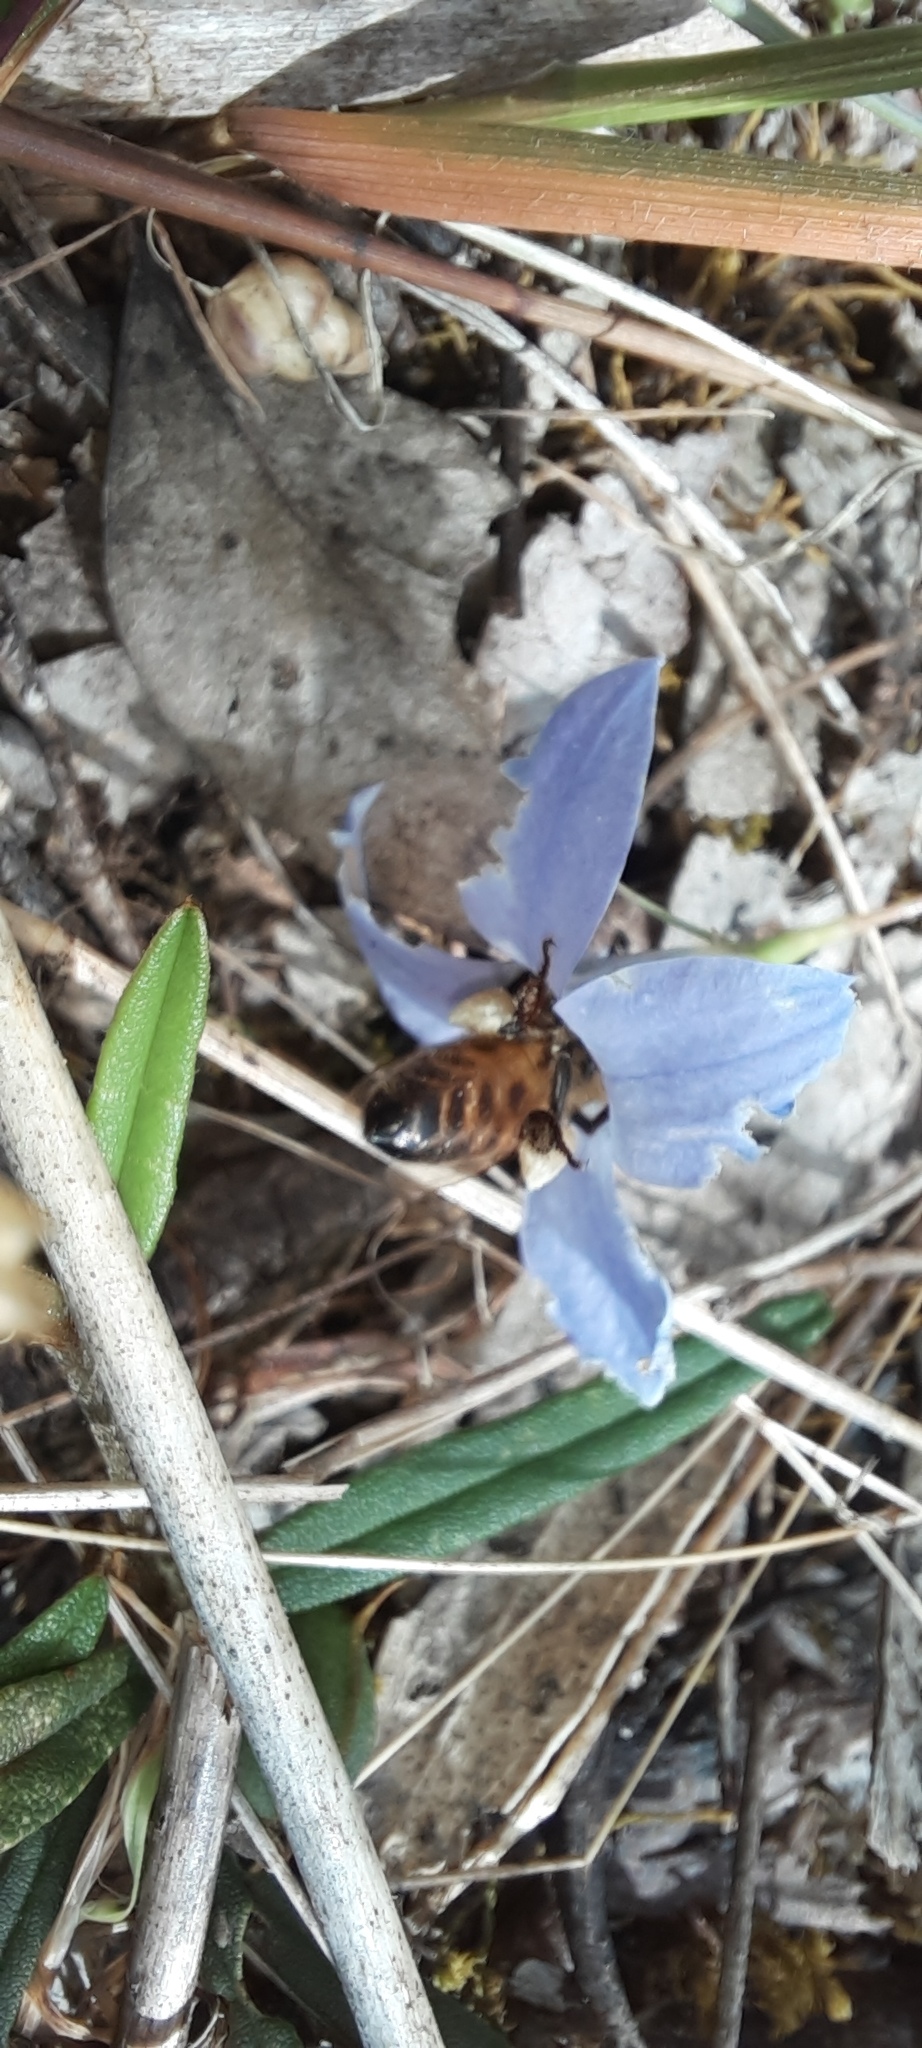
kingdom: Animalia
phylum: Arthropoda
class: Insecta
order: Hymenoptera
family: Apidae
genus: Apis
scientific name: Apis mellifera
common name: Honey bee
